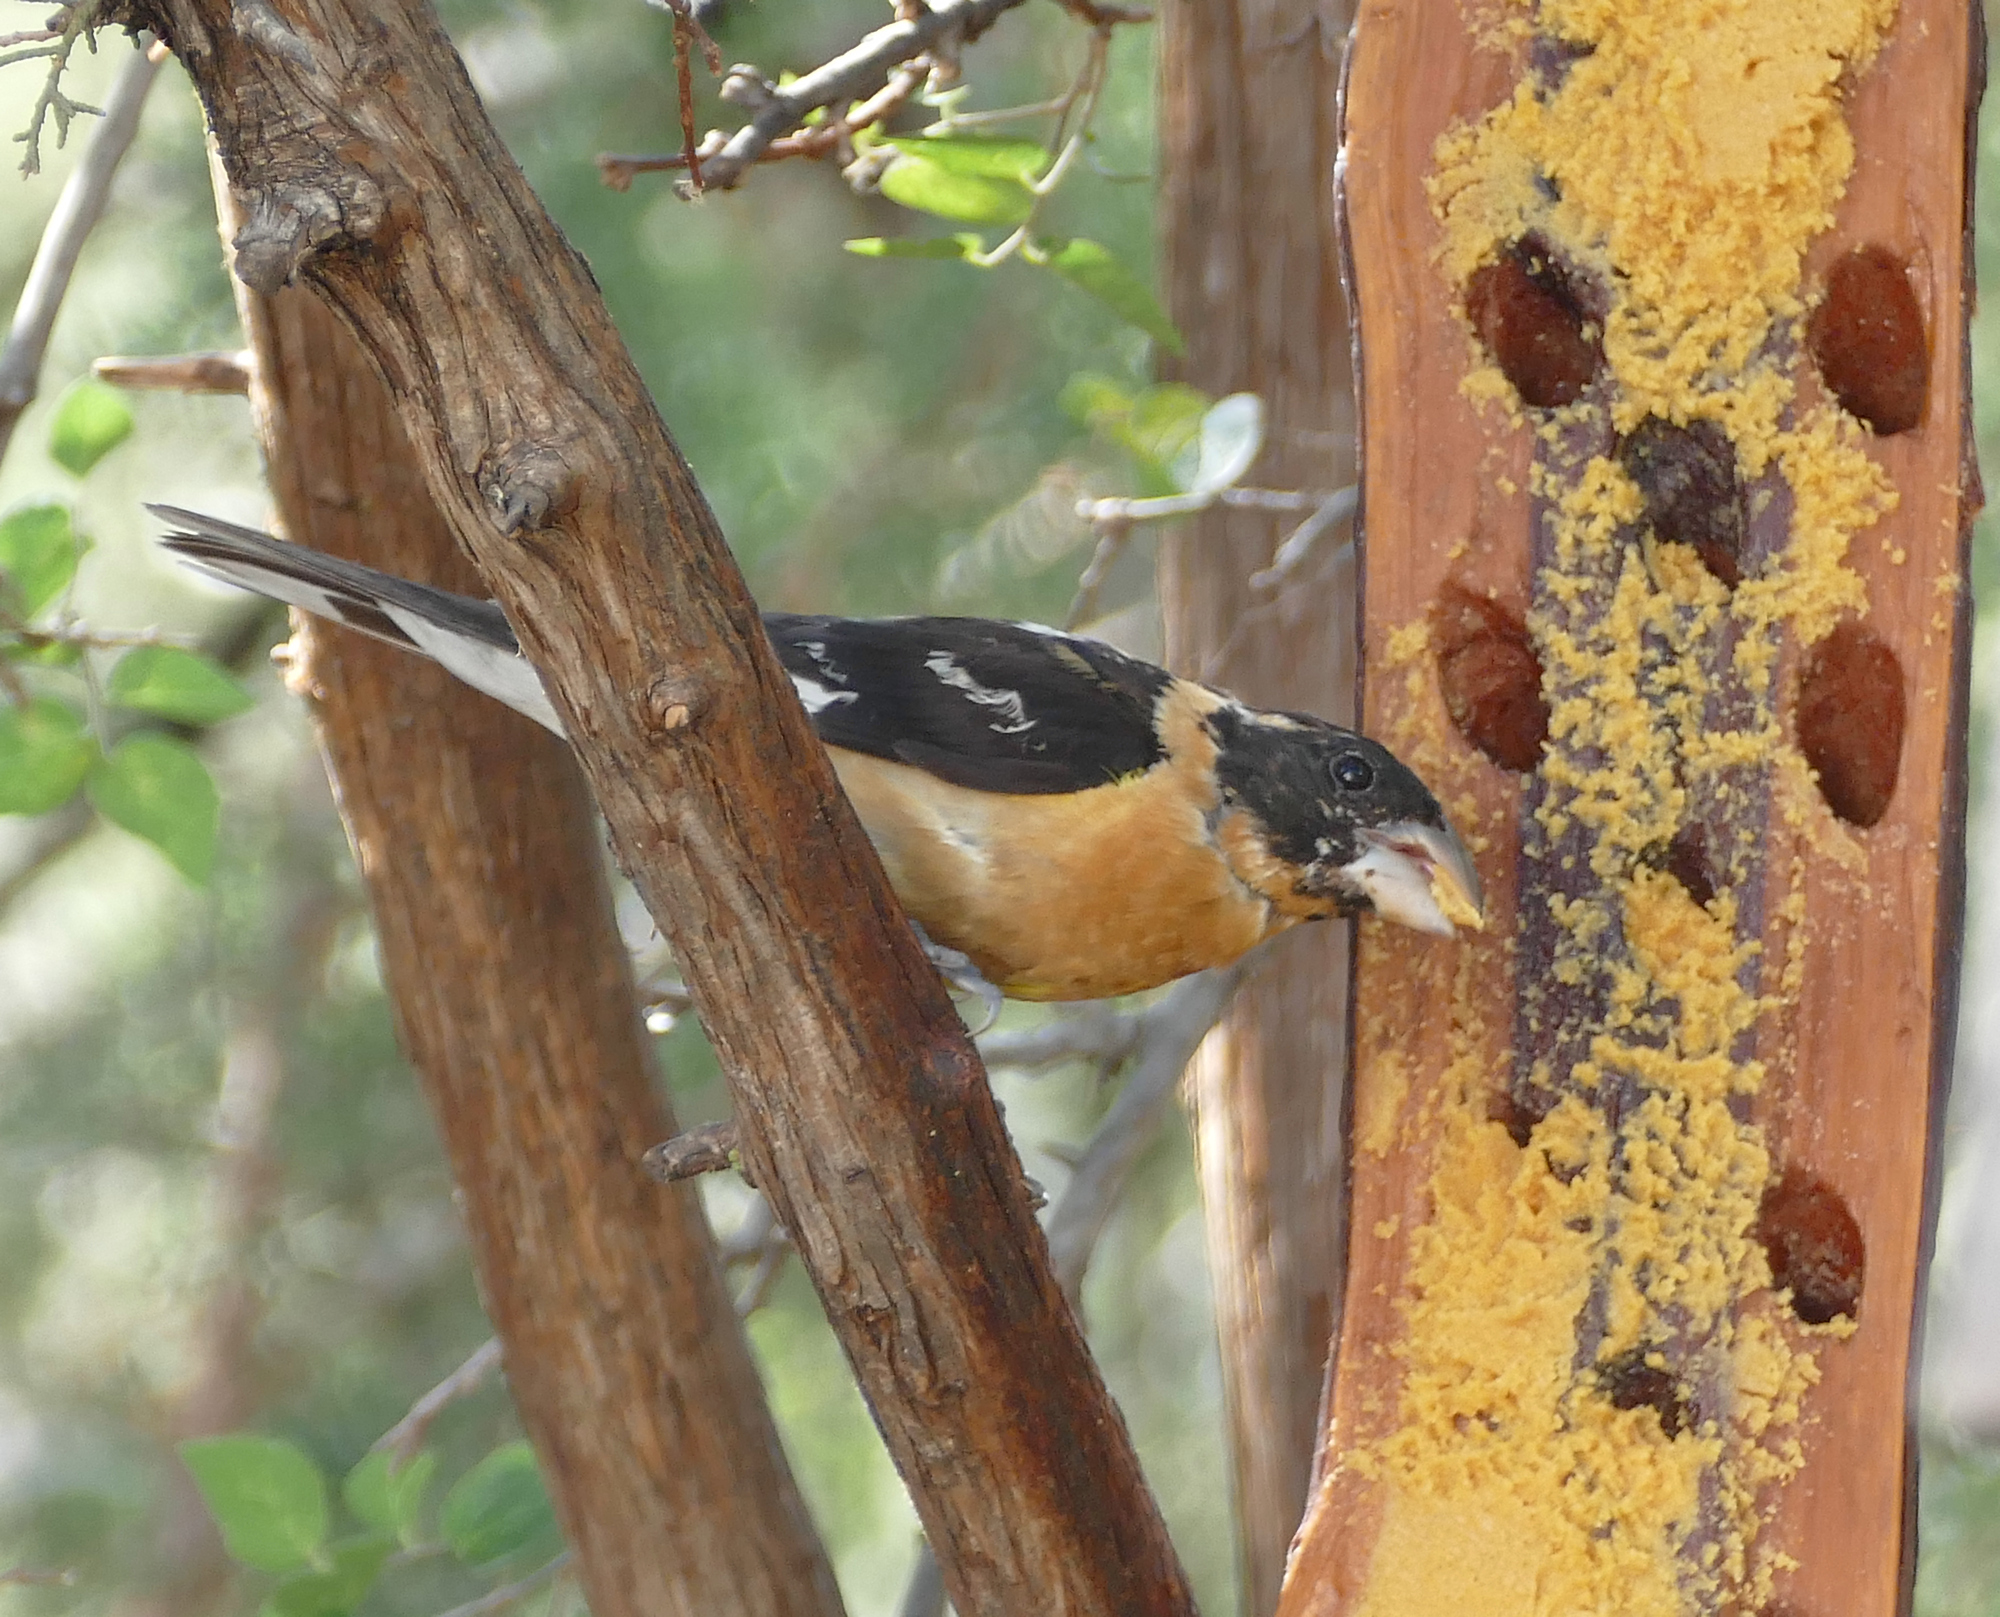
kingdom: Animalia
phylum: Chordata
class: Aves
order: Passeriformes
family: Cardinalidae
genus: Pheucticus
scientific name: Pheucticus melanocephalus
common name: Black-headed grosbeak
